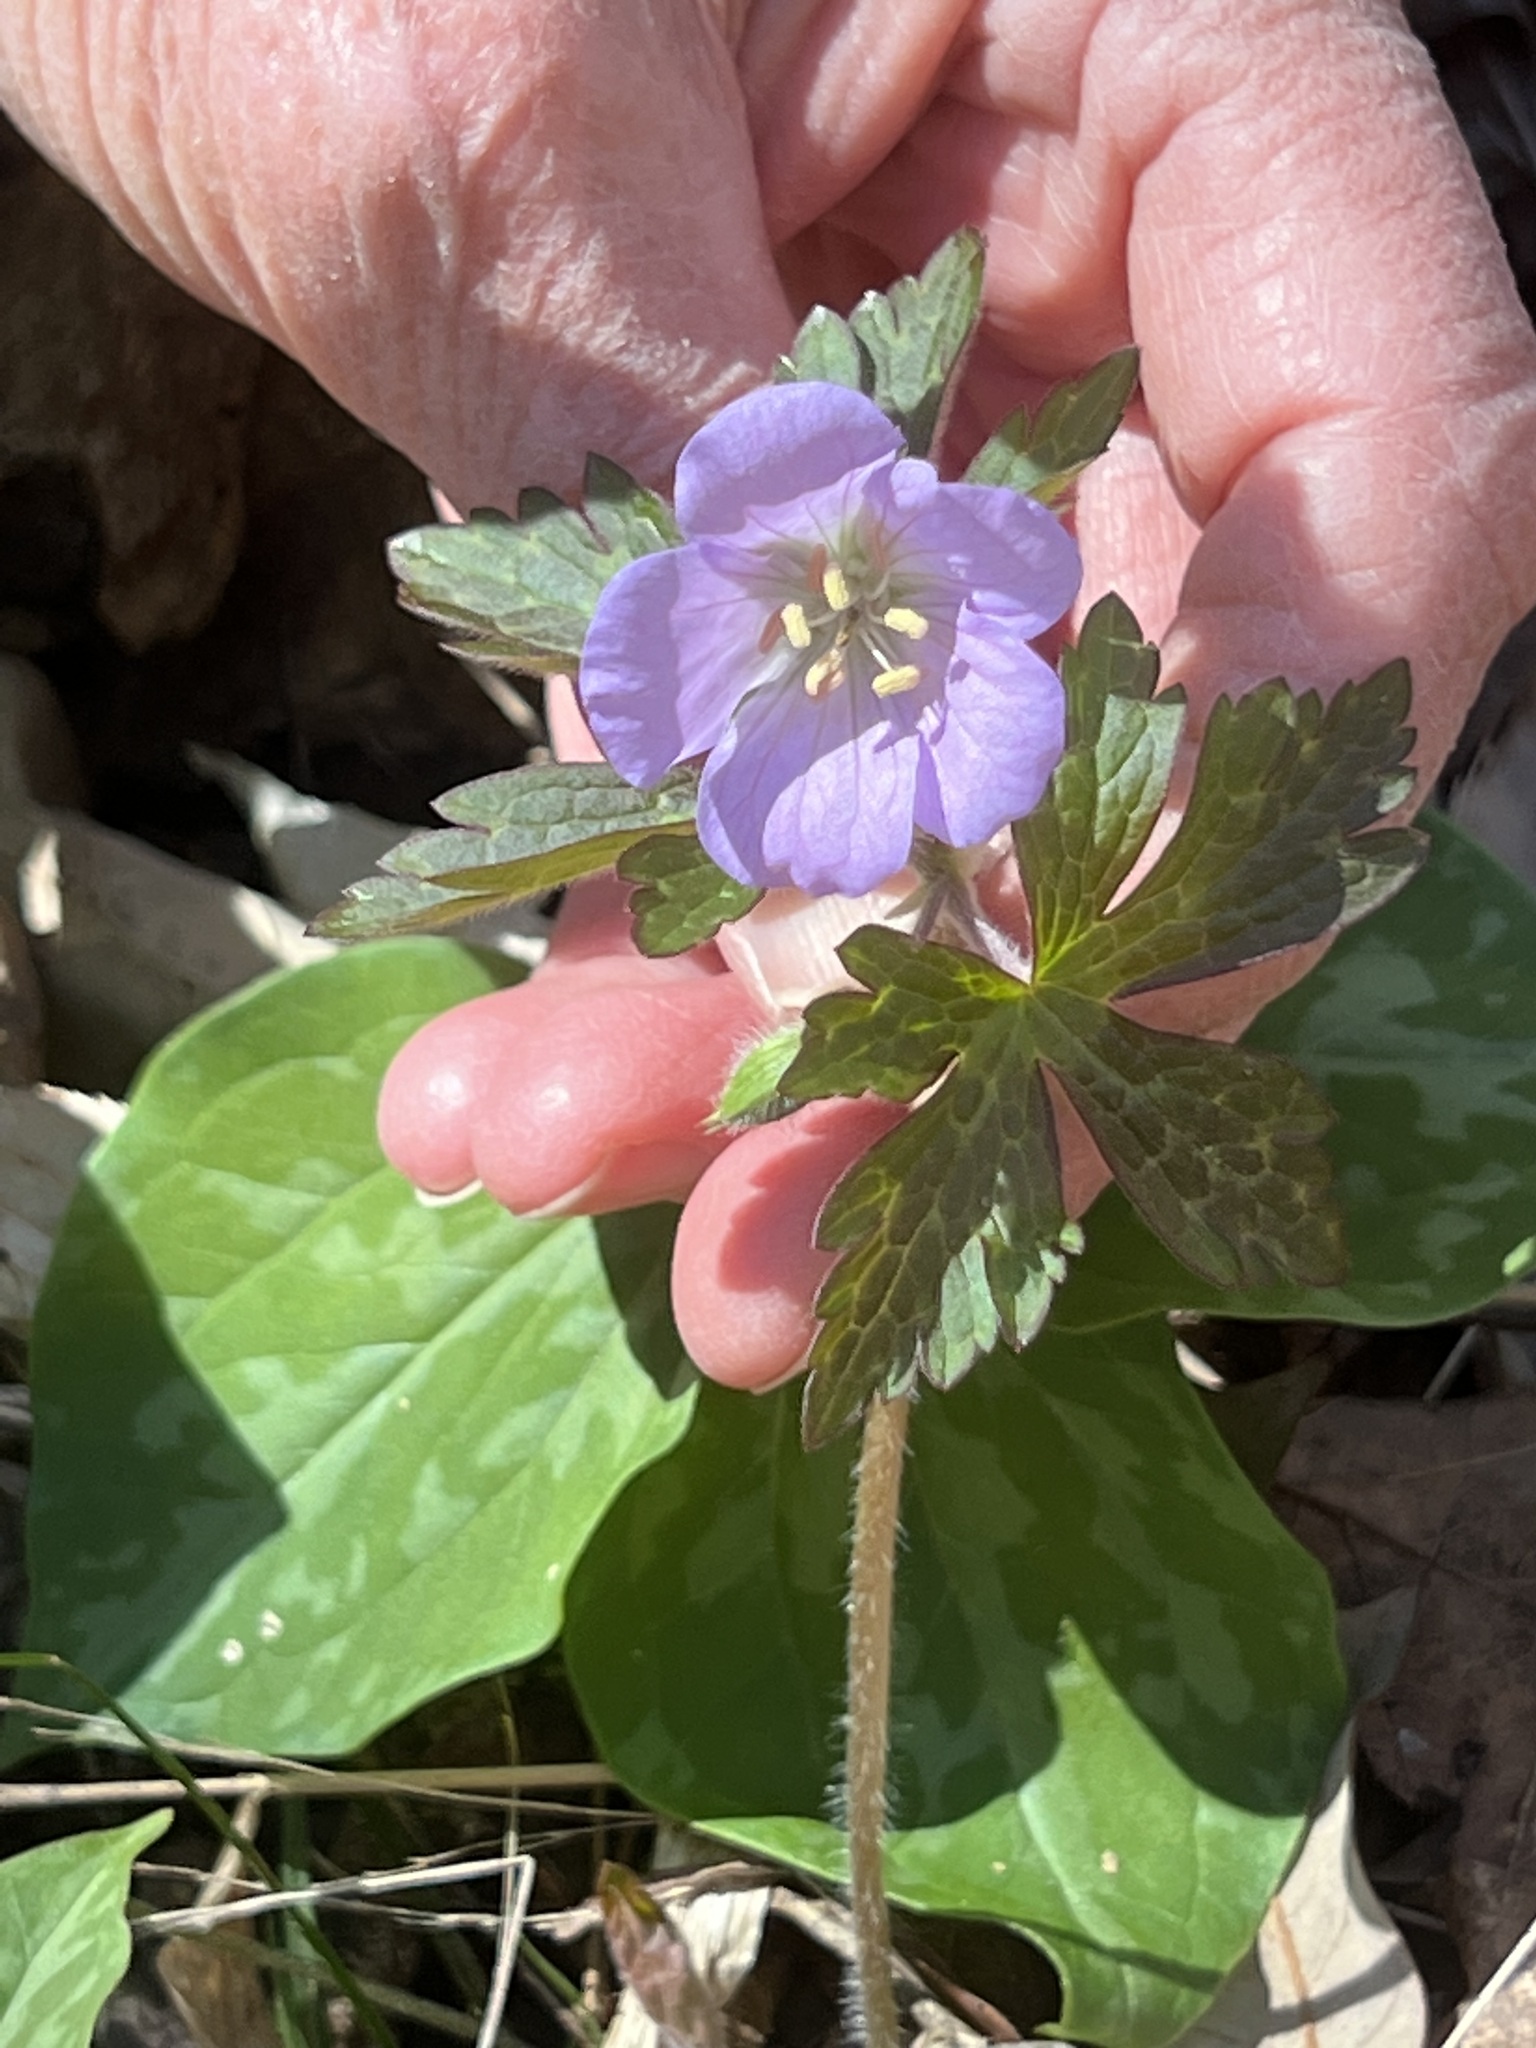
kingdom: Plantae
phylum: Tracheophyta
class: Magnoliopsida
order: Geraniales
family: Geraniaceae
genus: Geranium
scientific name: Geranium maculatum
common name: Spotted geranium
